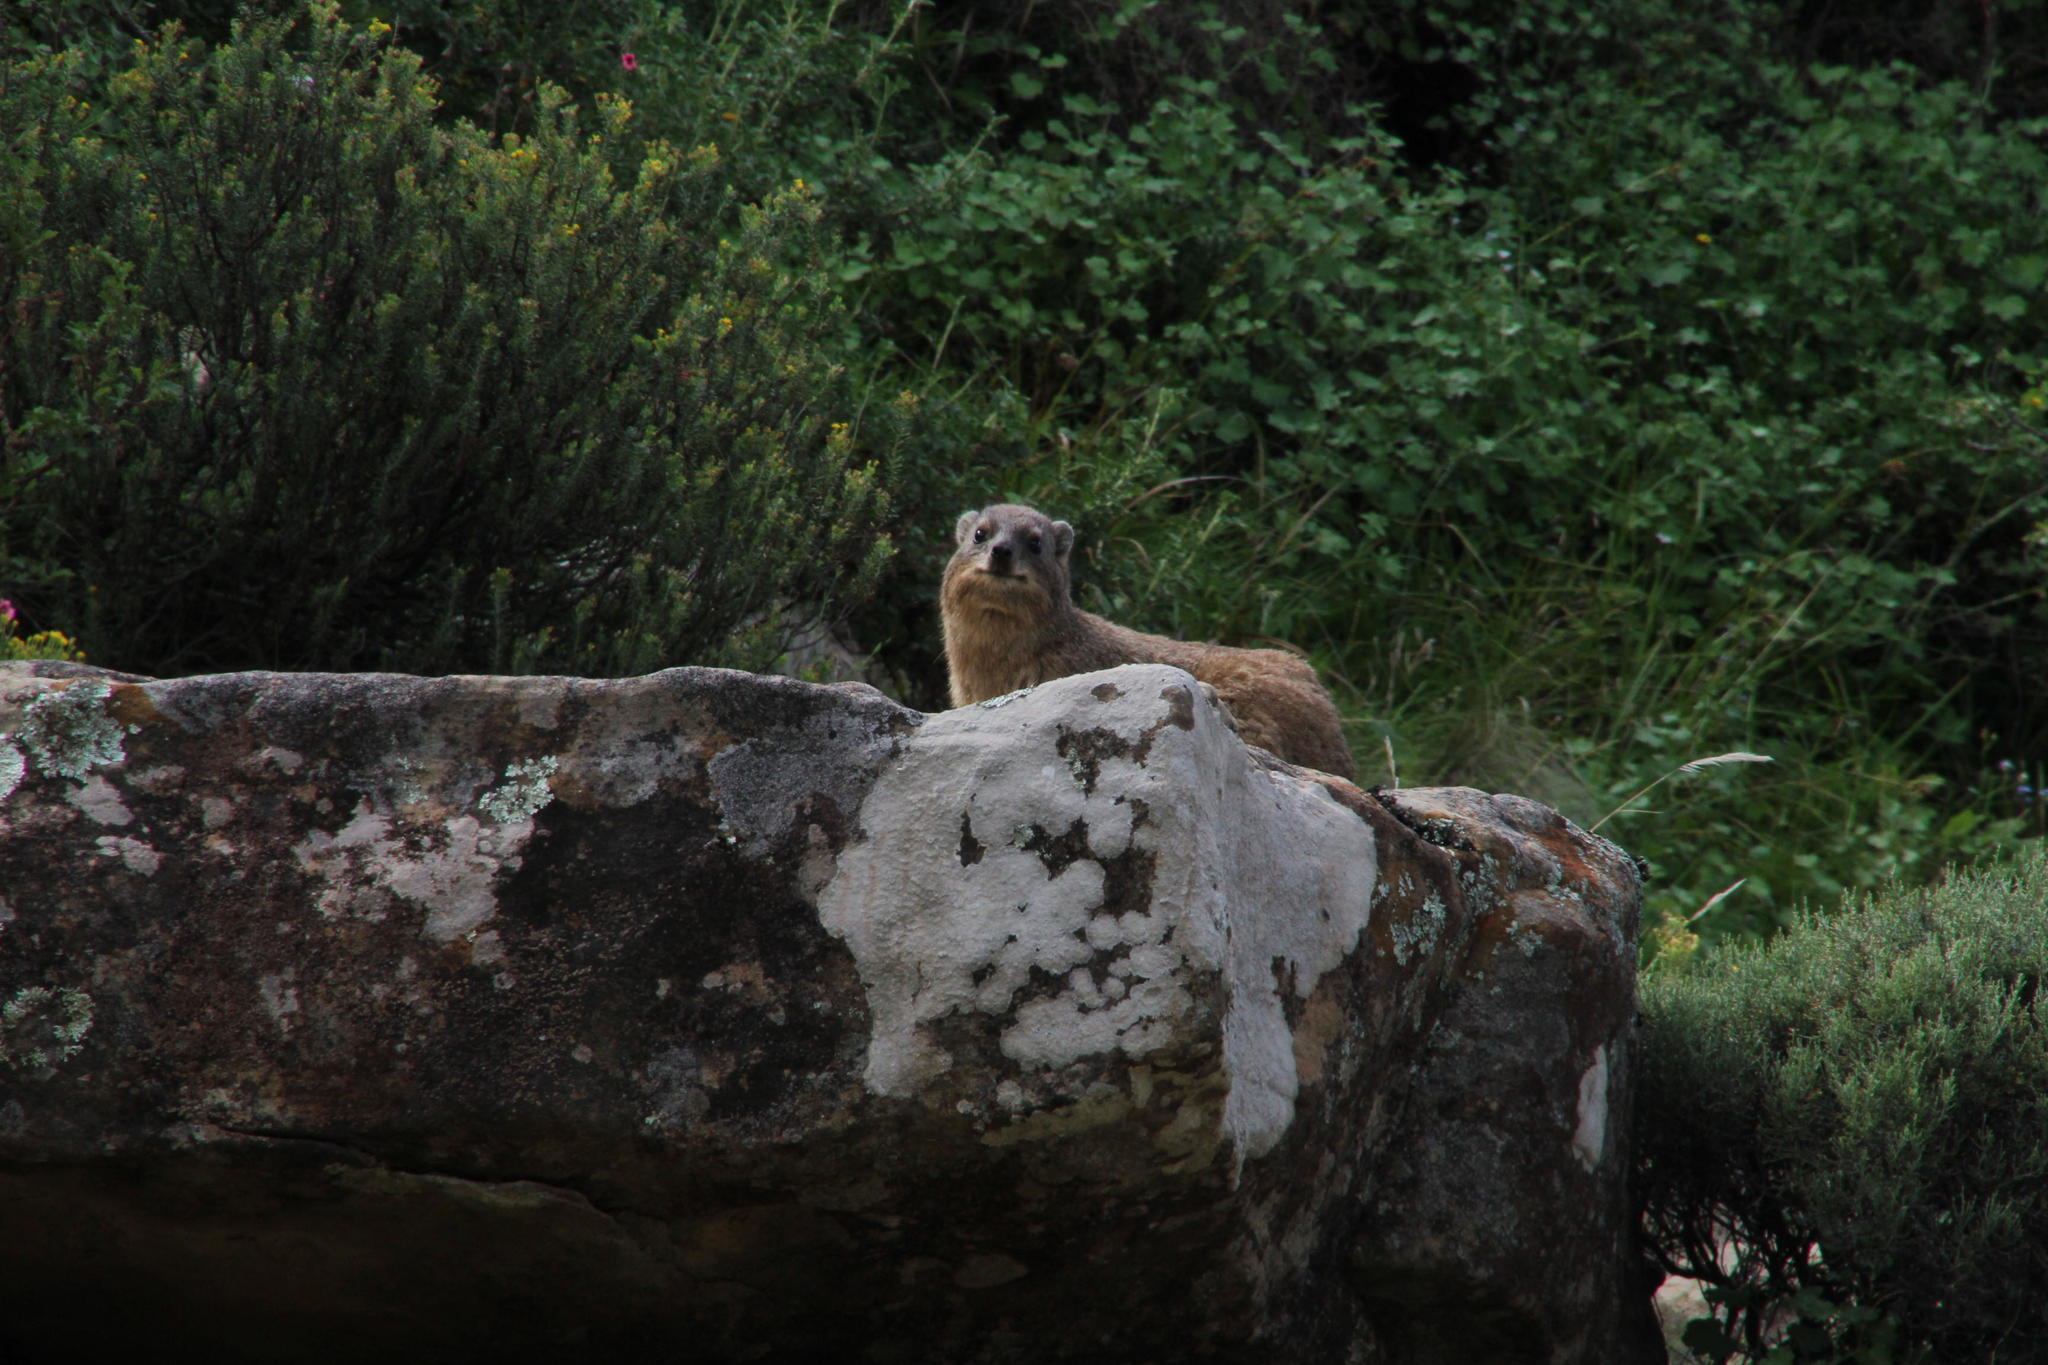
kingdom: Animalia
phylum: Chordata
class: Mammalia
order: Hyracoidea
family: Procaviidae
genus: Procavia
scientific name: Procavia capensis
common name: Rock hyrax
